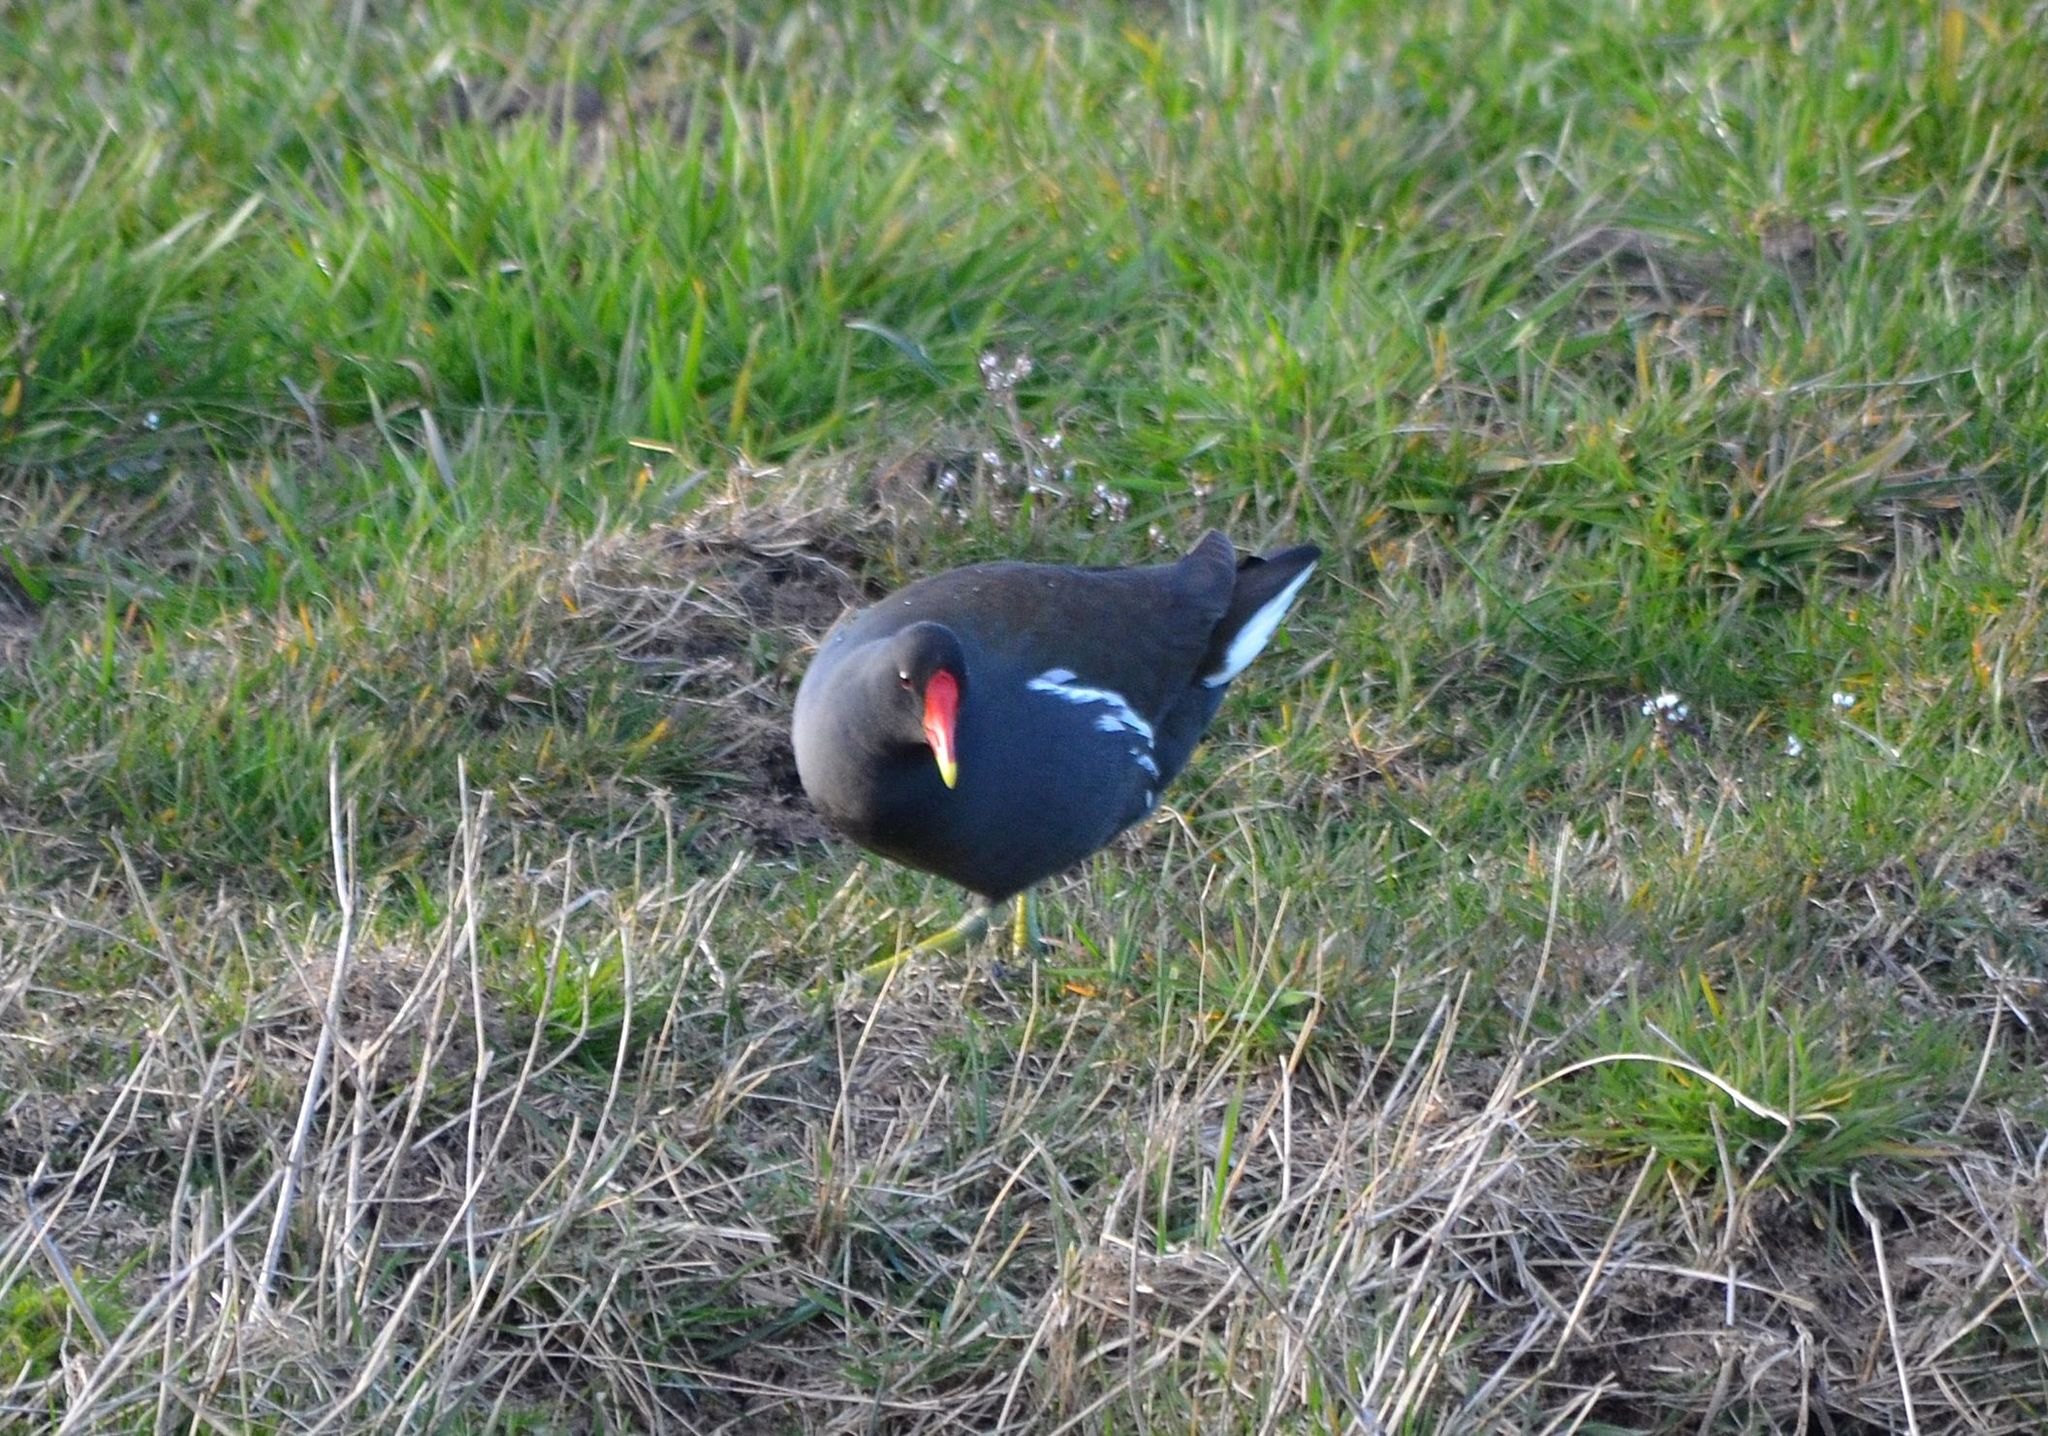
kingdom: Animalia
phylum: Chordata
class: Aves
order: Gruiformes
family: Rallidae
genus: Gallinula
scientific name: Gallinula chloropus
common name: Common moorhen
